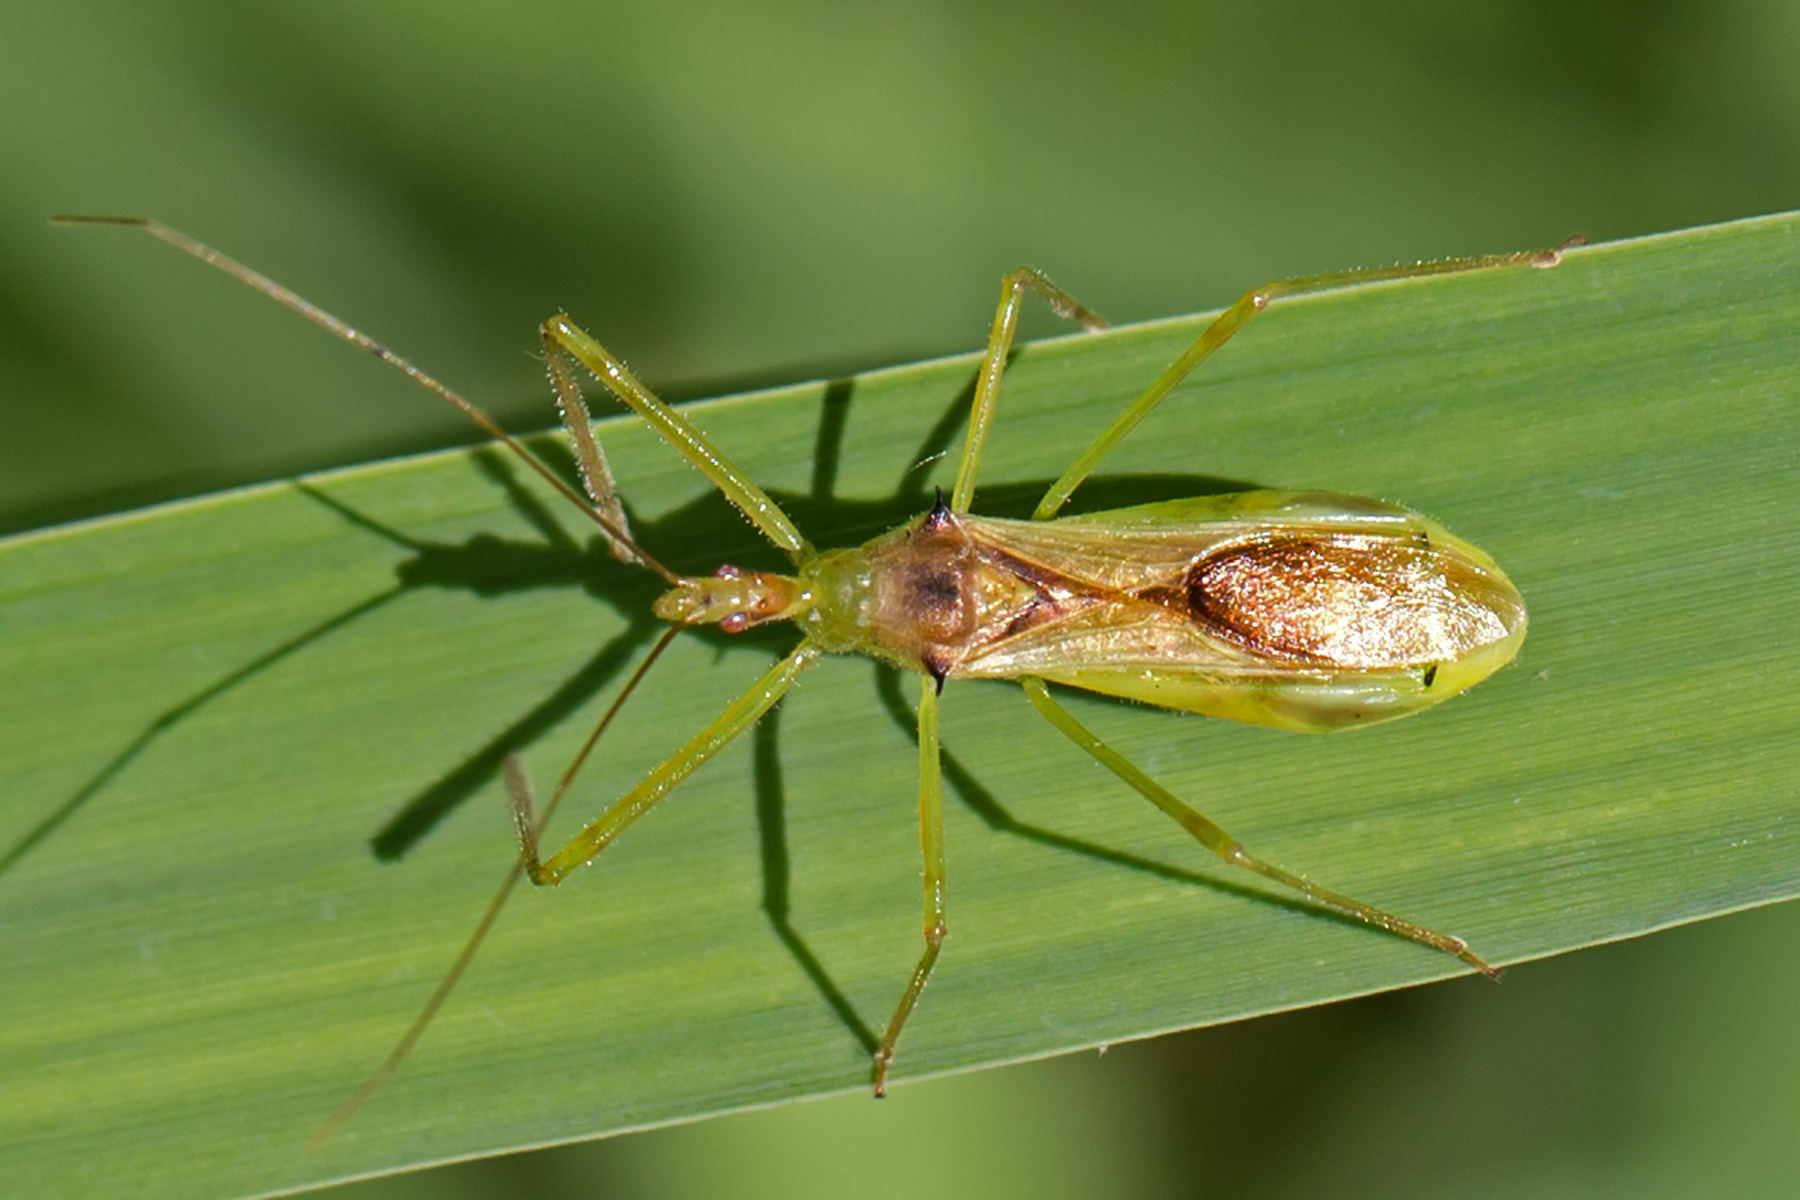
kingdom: Animalia
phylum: Arthropoda
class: Insecta
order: Hemiptera
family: Reduviidae
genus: Zelus
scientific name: Zelus luridus
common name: Pale green assassin bug
